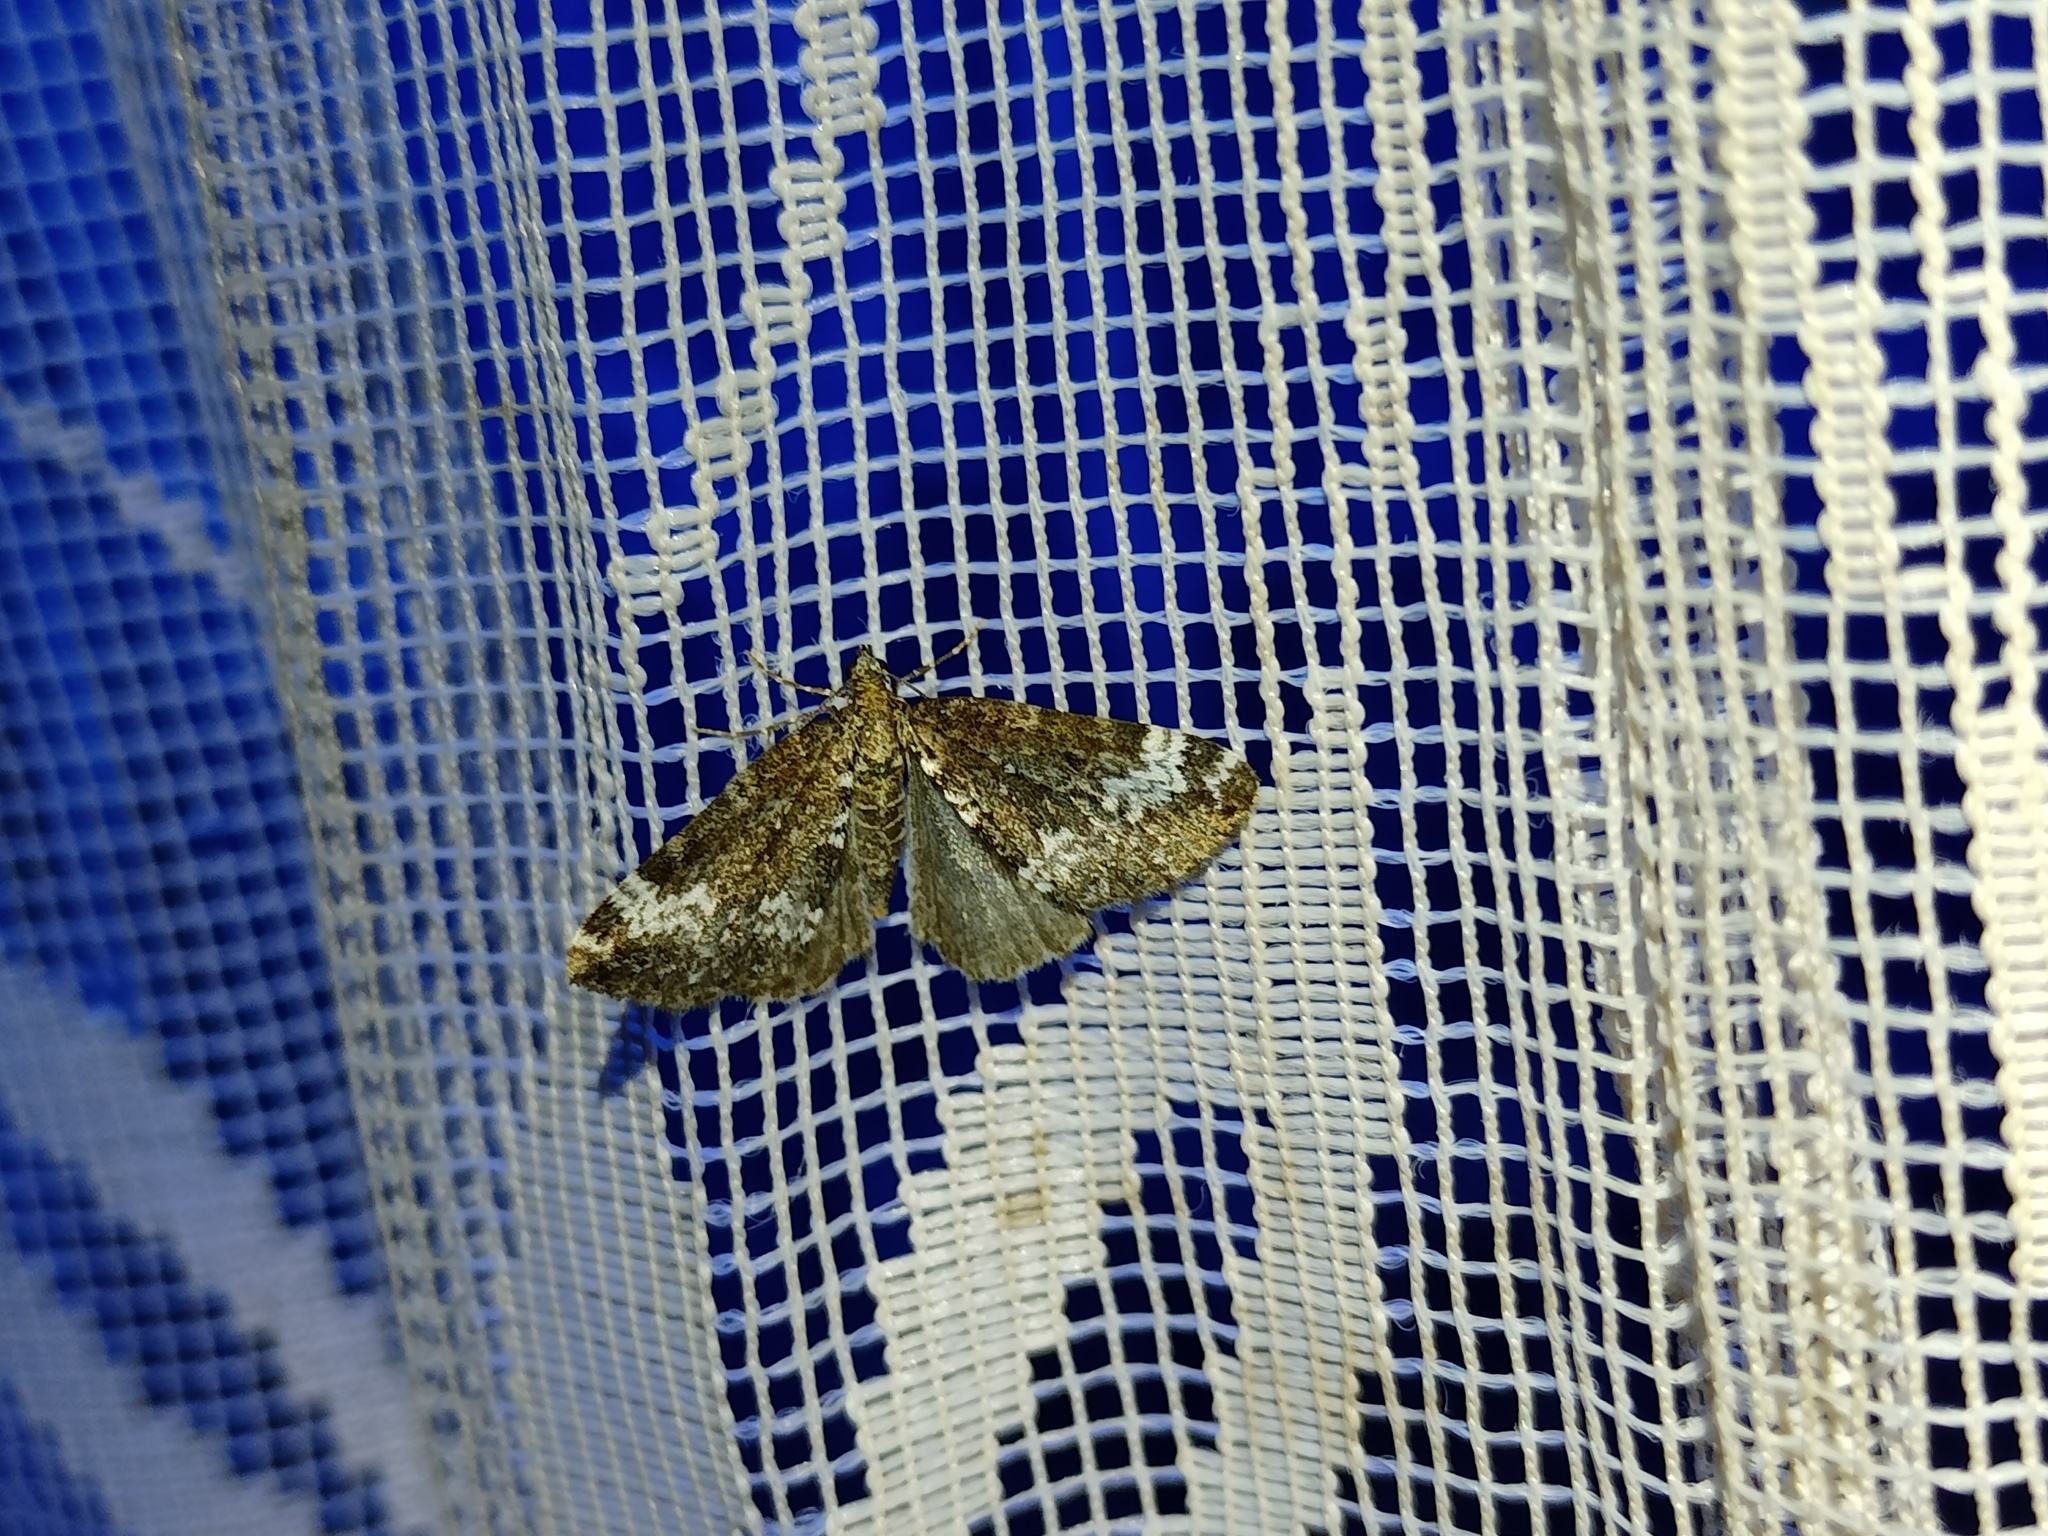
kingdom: Animalia
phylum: Arthropoda
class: Insecta
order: Lepidoptera
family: Geometridae
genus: Perizoma
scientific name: Perizoma alchemillata
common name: Small rivulet
